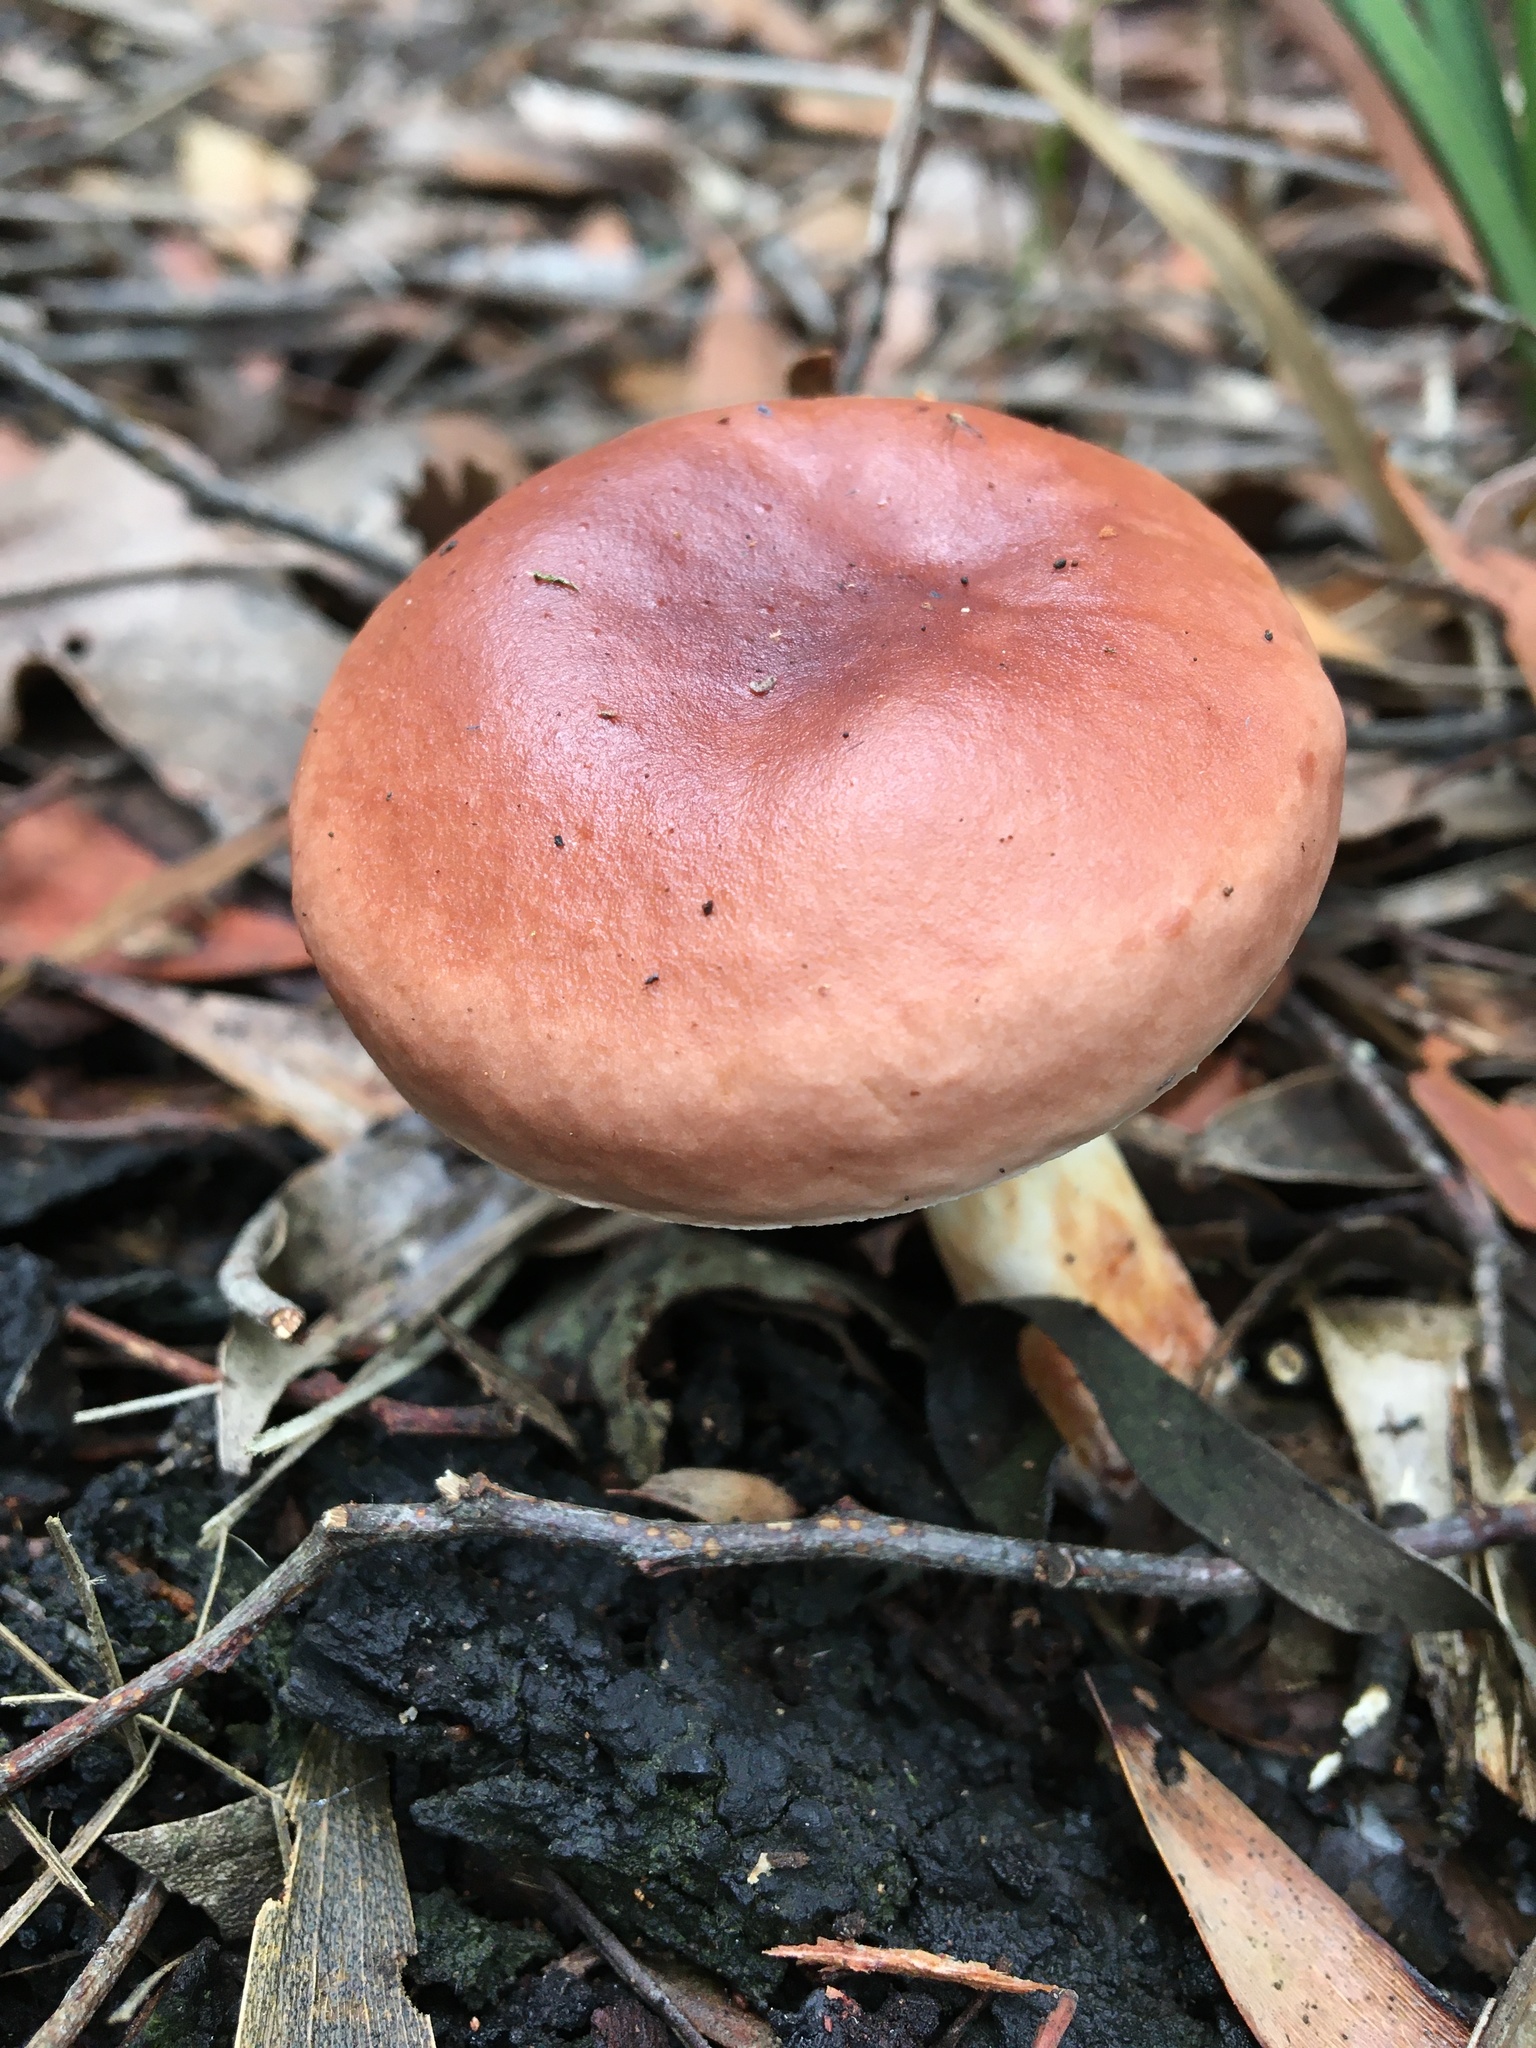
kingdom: Fungi
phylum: Basidiomycota
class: Agaricomycetes
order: Boletales
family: Boletaceae
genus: Fistulinella
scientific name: Fistulinella mollis
